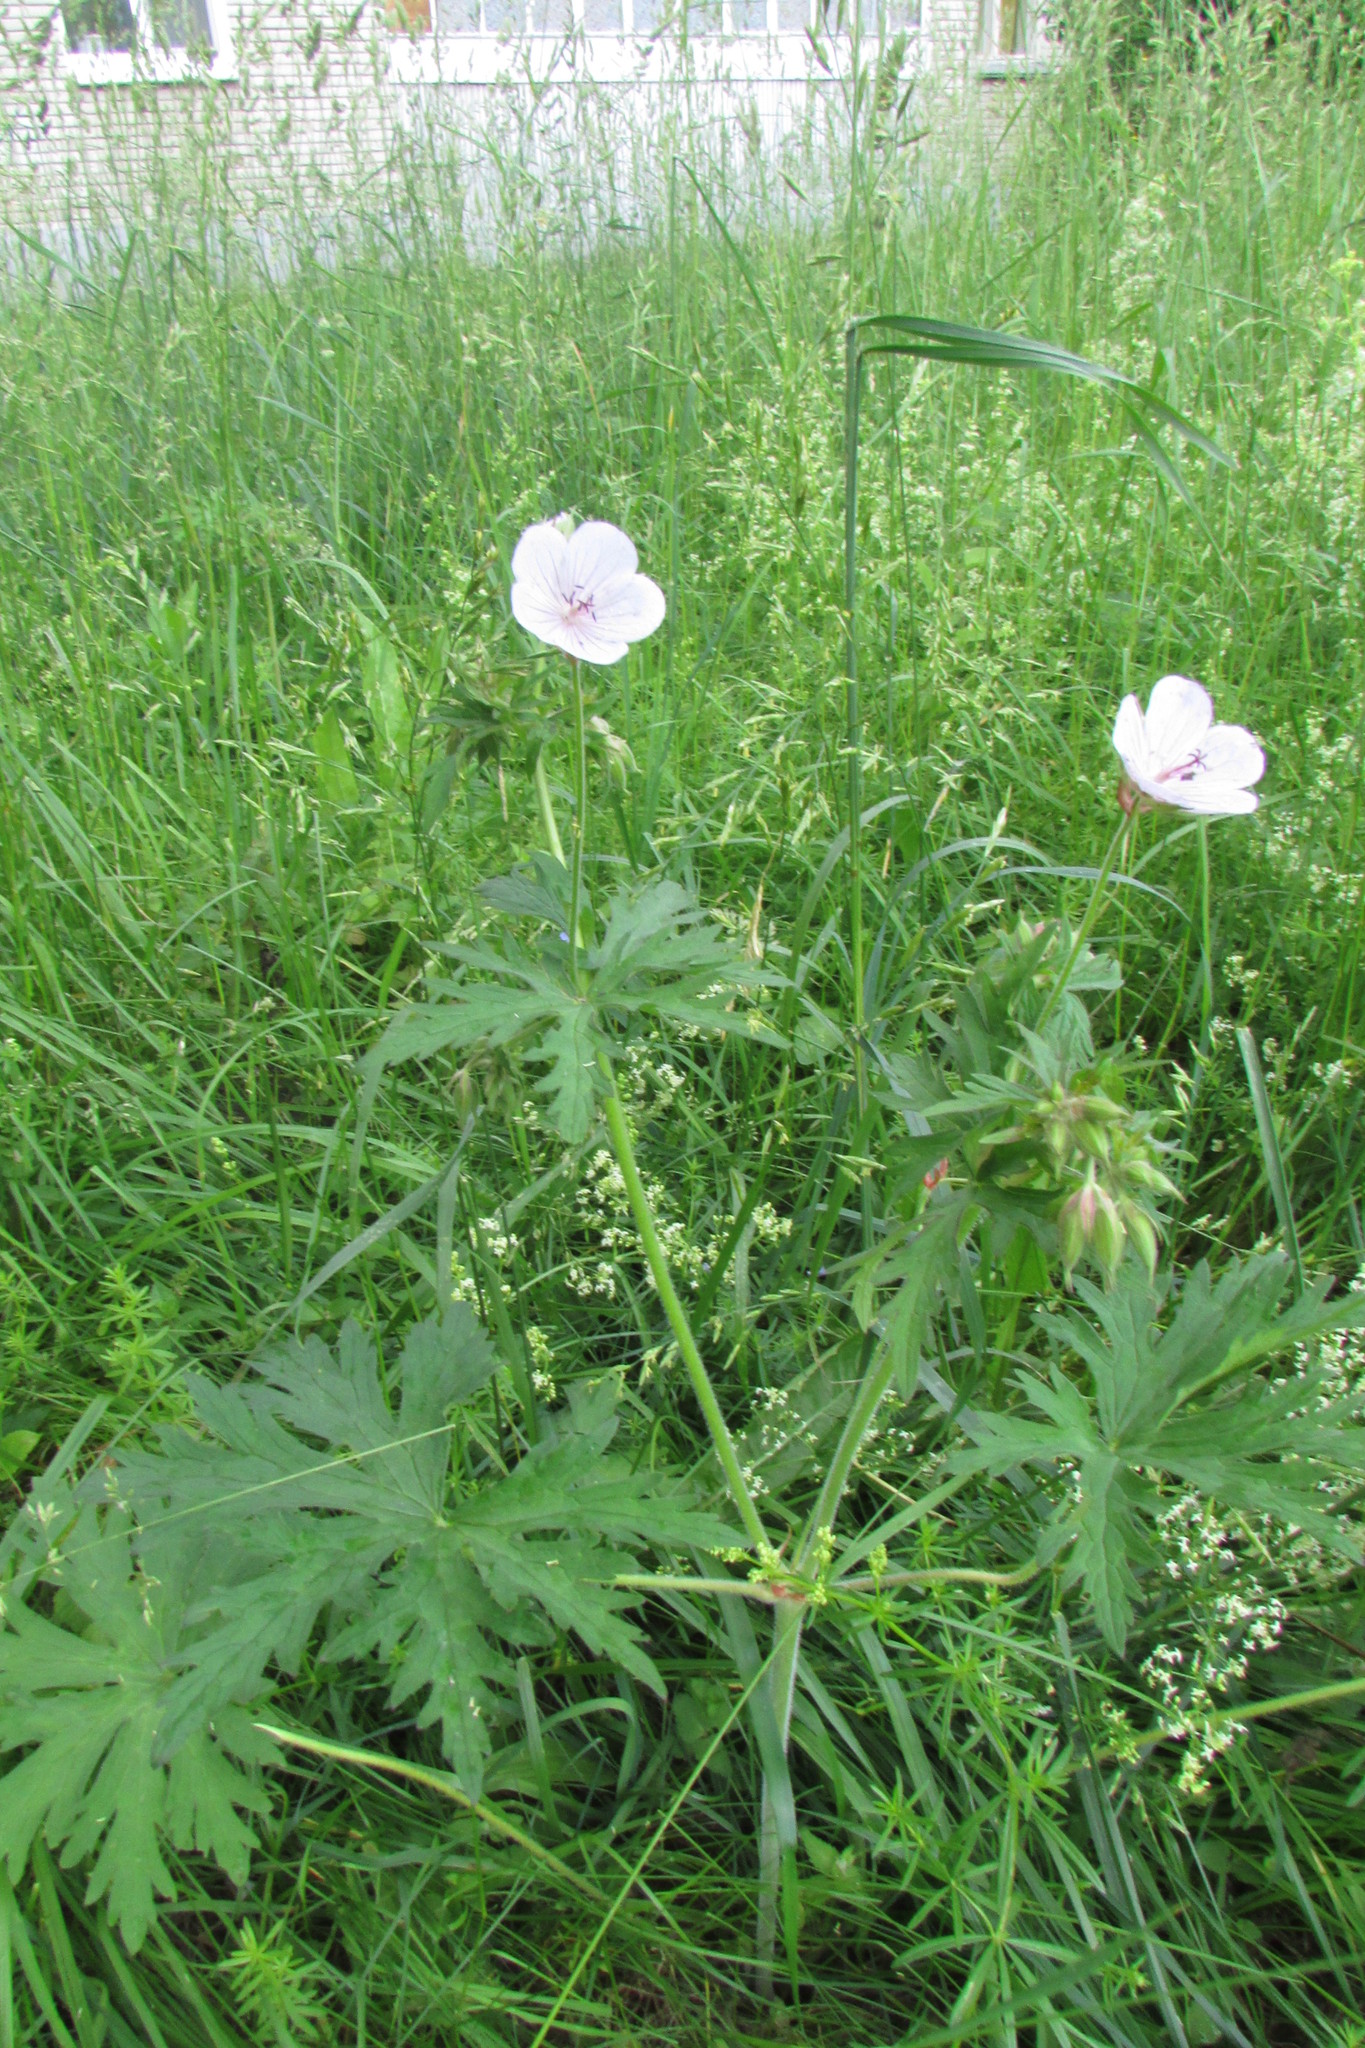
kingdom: Plantae
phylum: Tracheophyta
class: Magnoliopsida
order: Geraniales
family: Geraniaceae
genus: Geranium
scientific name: Geranium pratense
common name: Meadow crane's-bill
